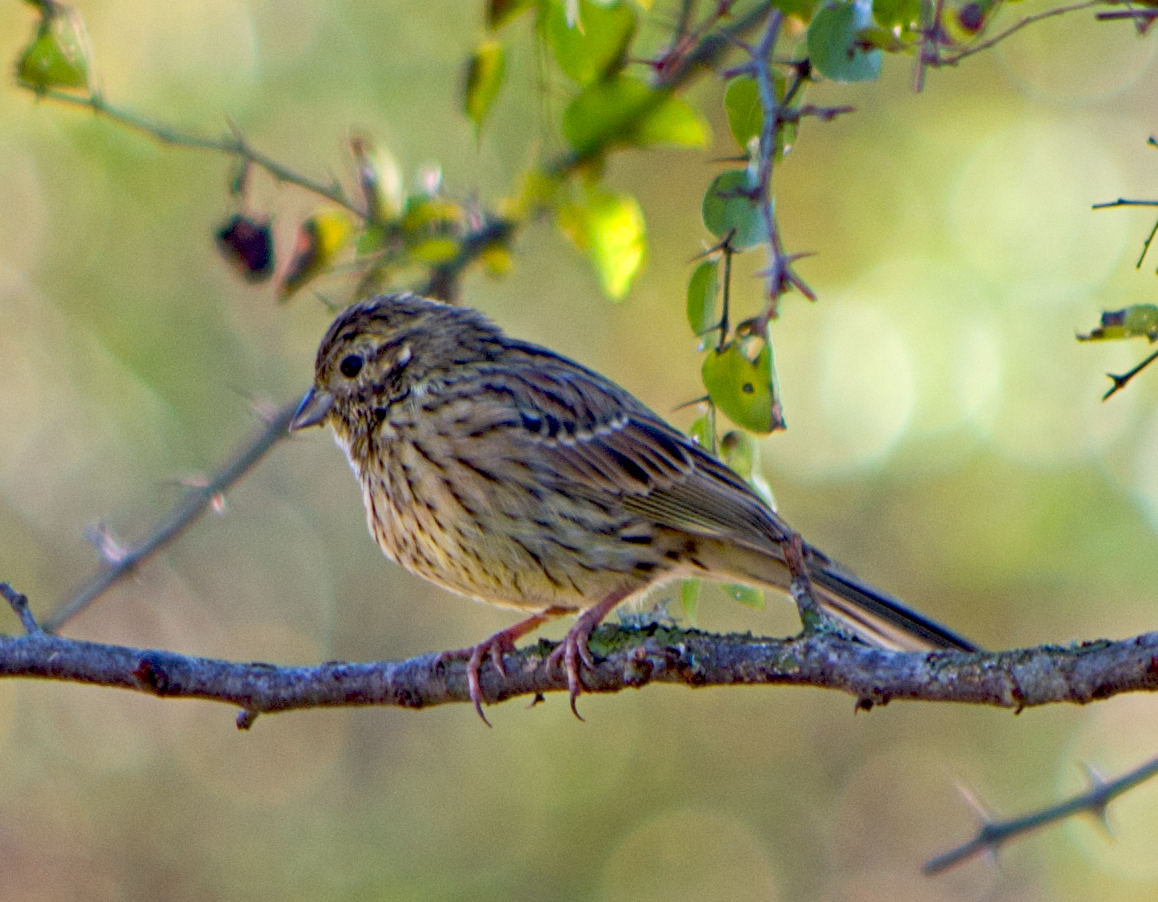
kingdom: Animalia
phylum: Chordata
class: Aves
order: Passeriformes
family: Emberizidae
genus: Emberiza
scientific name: Emberiza cirlus
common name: Cirl bunting
